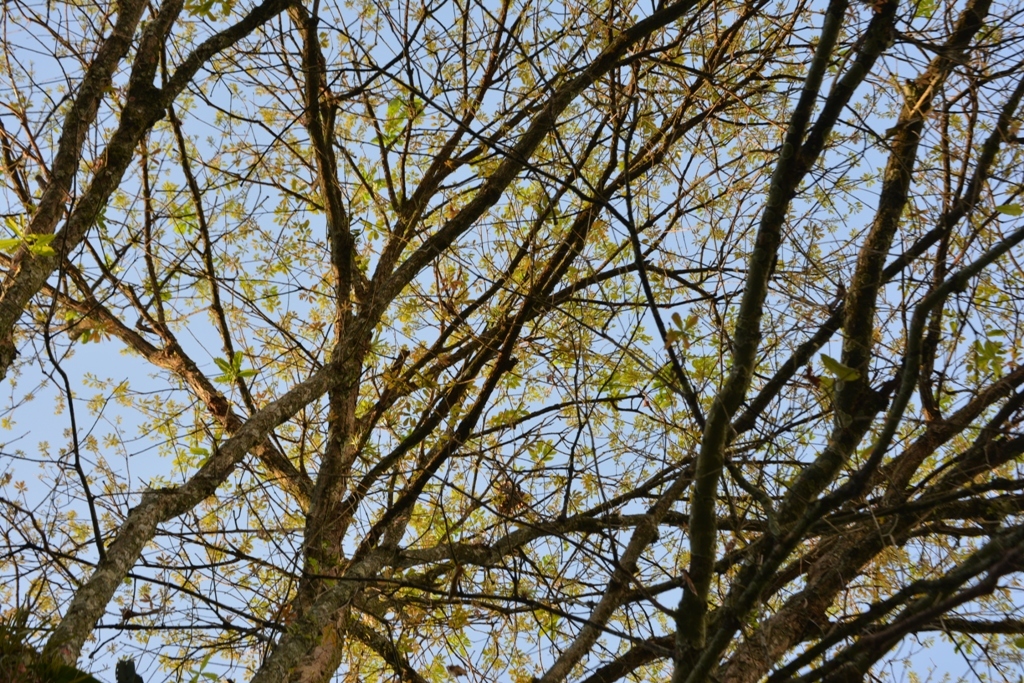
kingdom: Plantae
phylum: Tracheophyta
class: Magnoliopsida
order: Fagales
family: Fagaceae
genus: Quercus
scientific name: Quercus lancifolia
